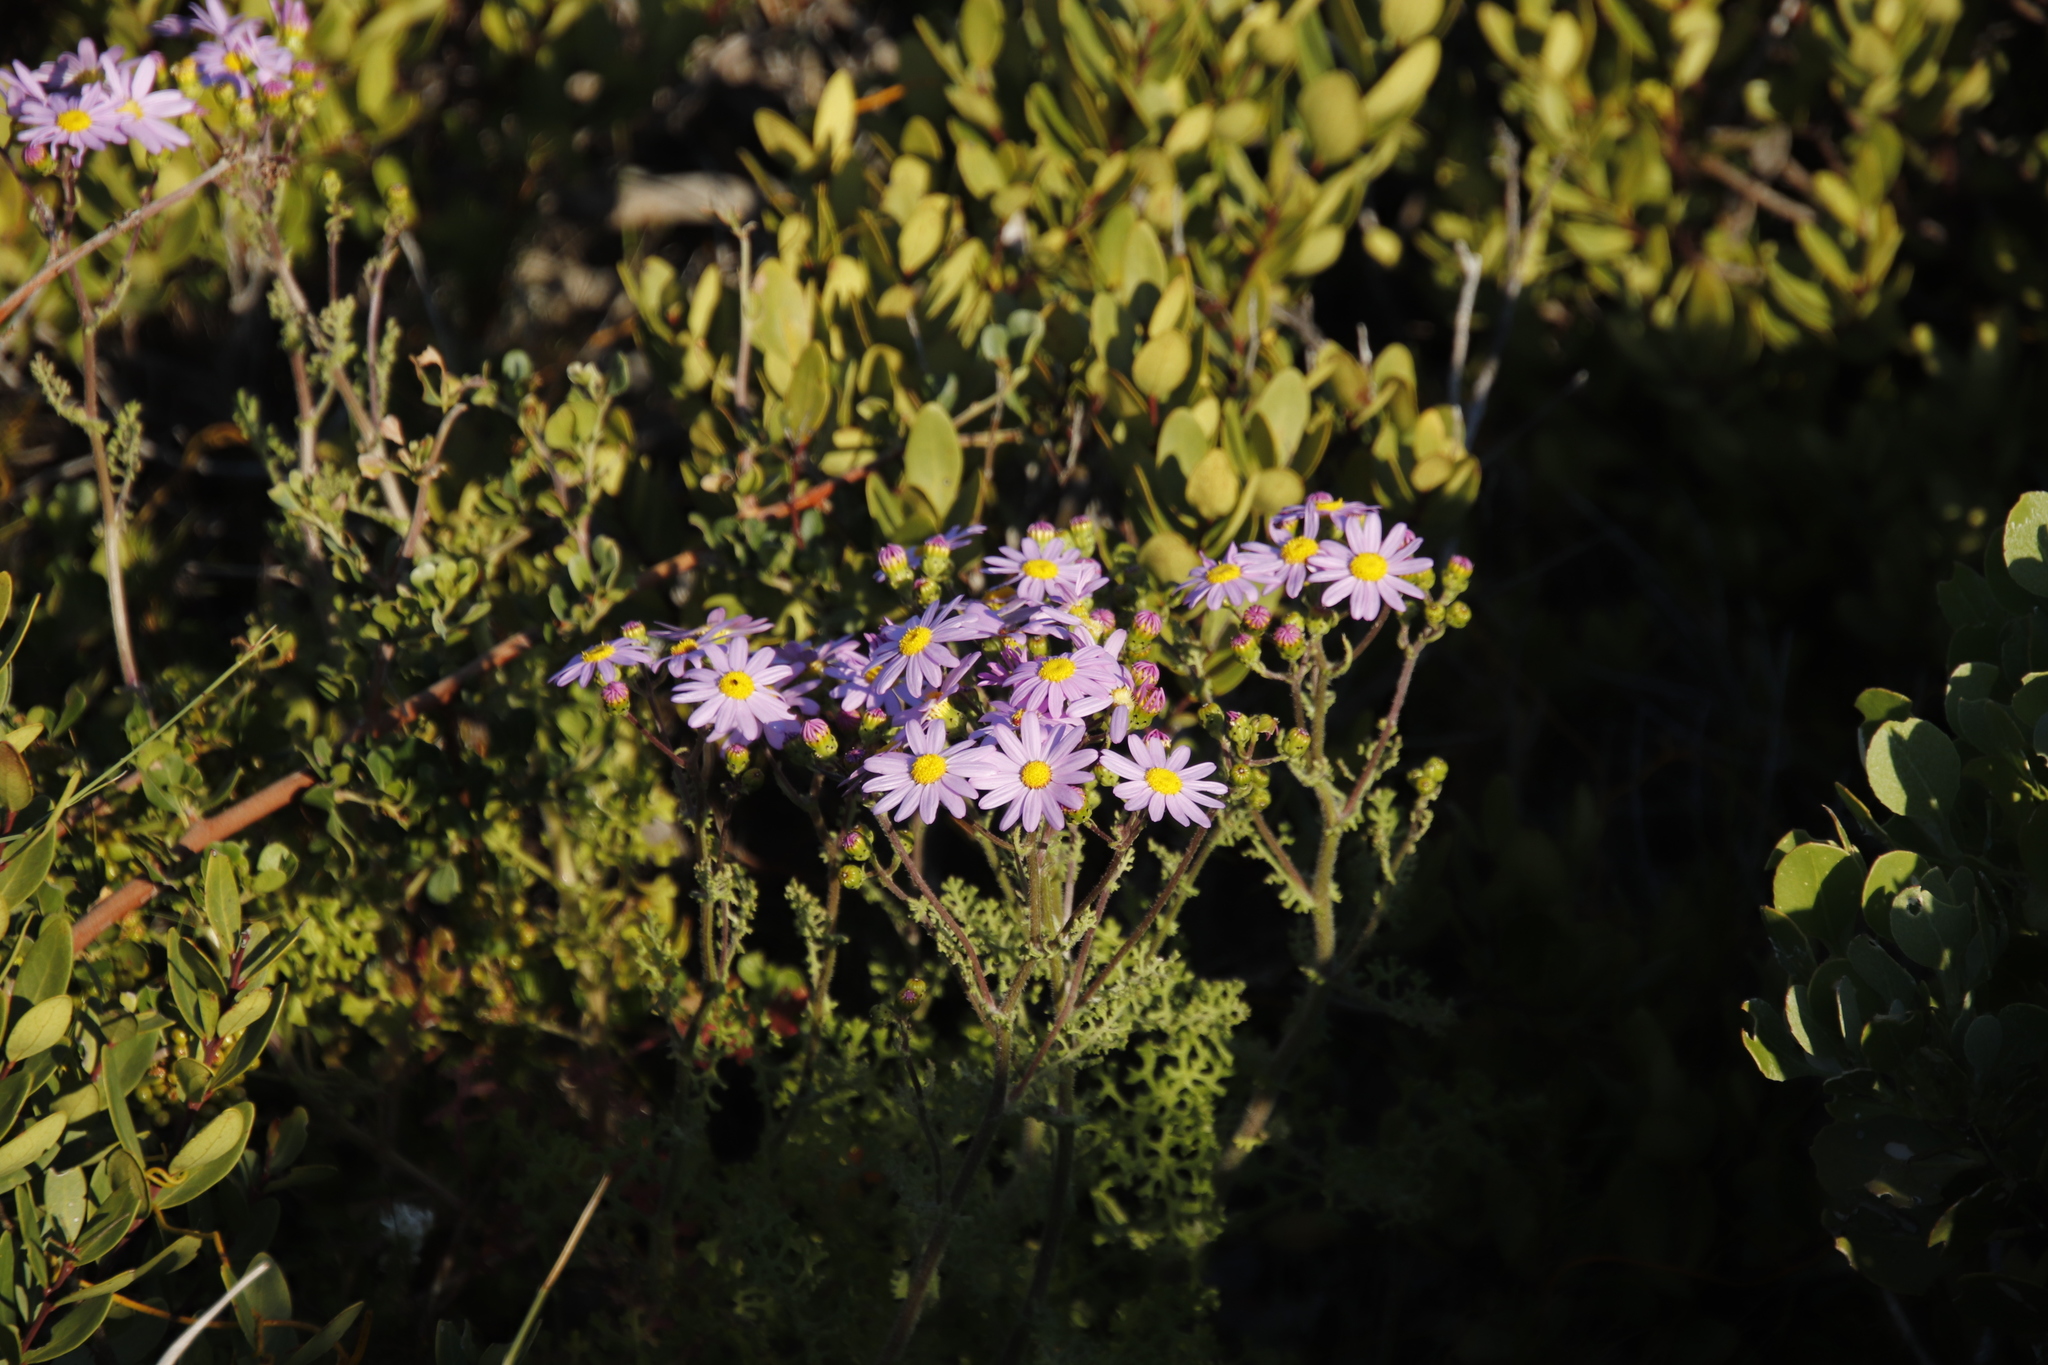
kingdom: Plantae
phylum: Tracheophyta
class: Magnoliopsida
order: Asterales
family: Asteraceae
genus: Senecio
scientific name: Senecio elegans
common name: Purple groundsel
